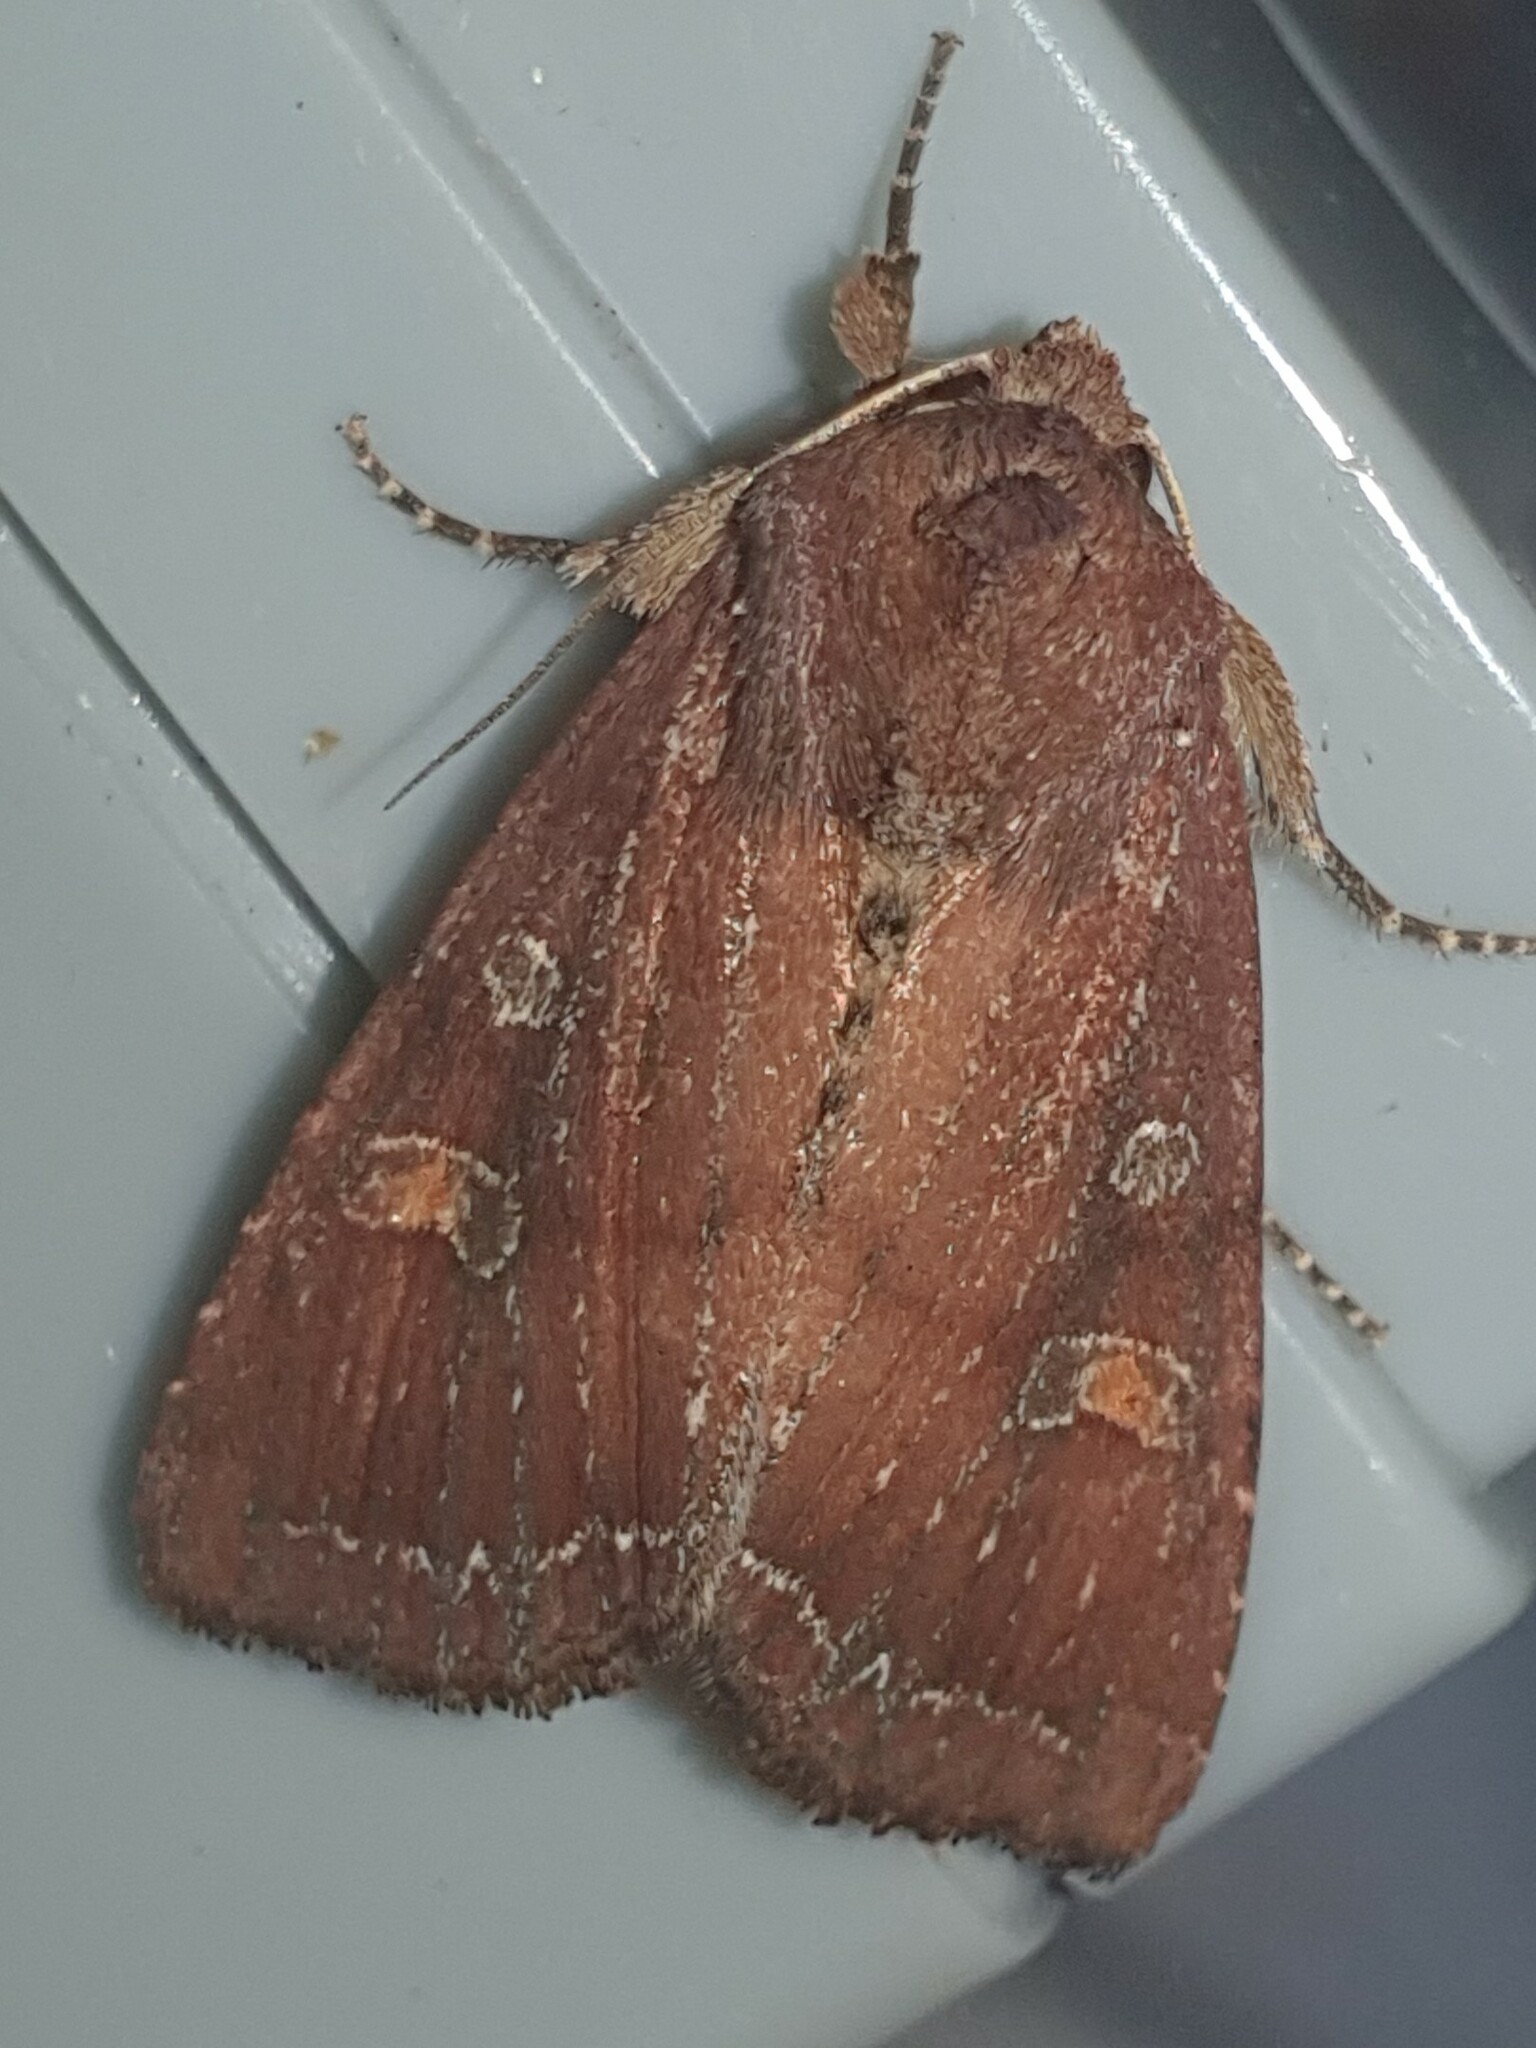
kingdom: Animalia
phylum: Arthropoda
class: Insecta
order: Lepidoptera
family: Noctuidae
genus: Lacanobia
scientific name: Lacanobia oleracea
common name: Bright-line brown-eye
